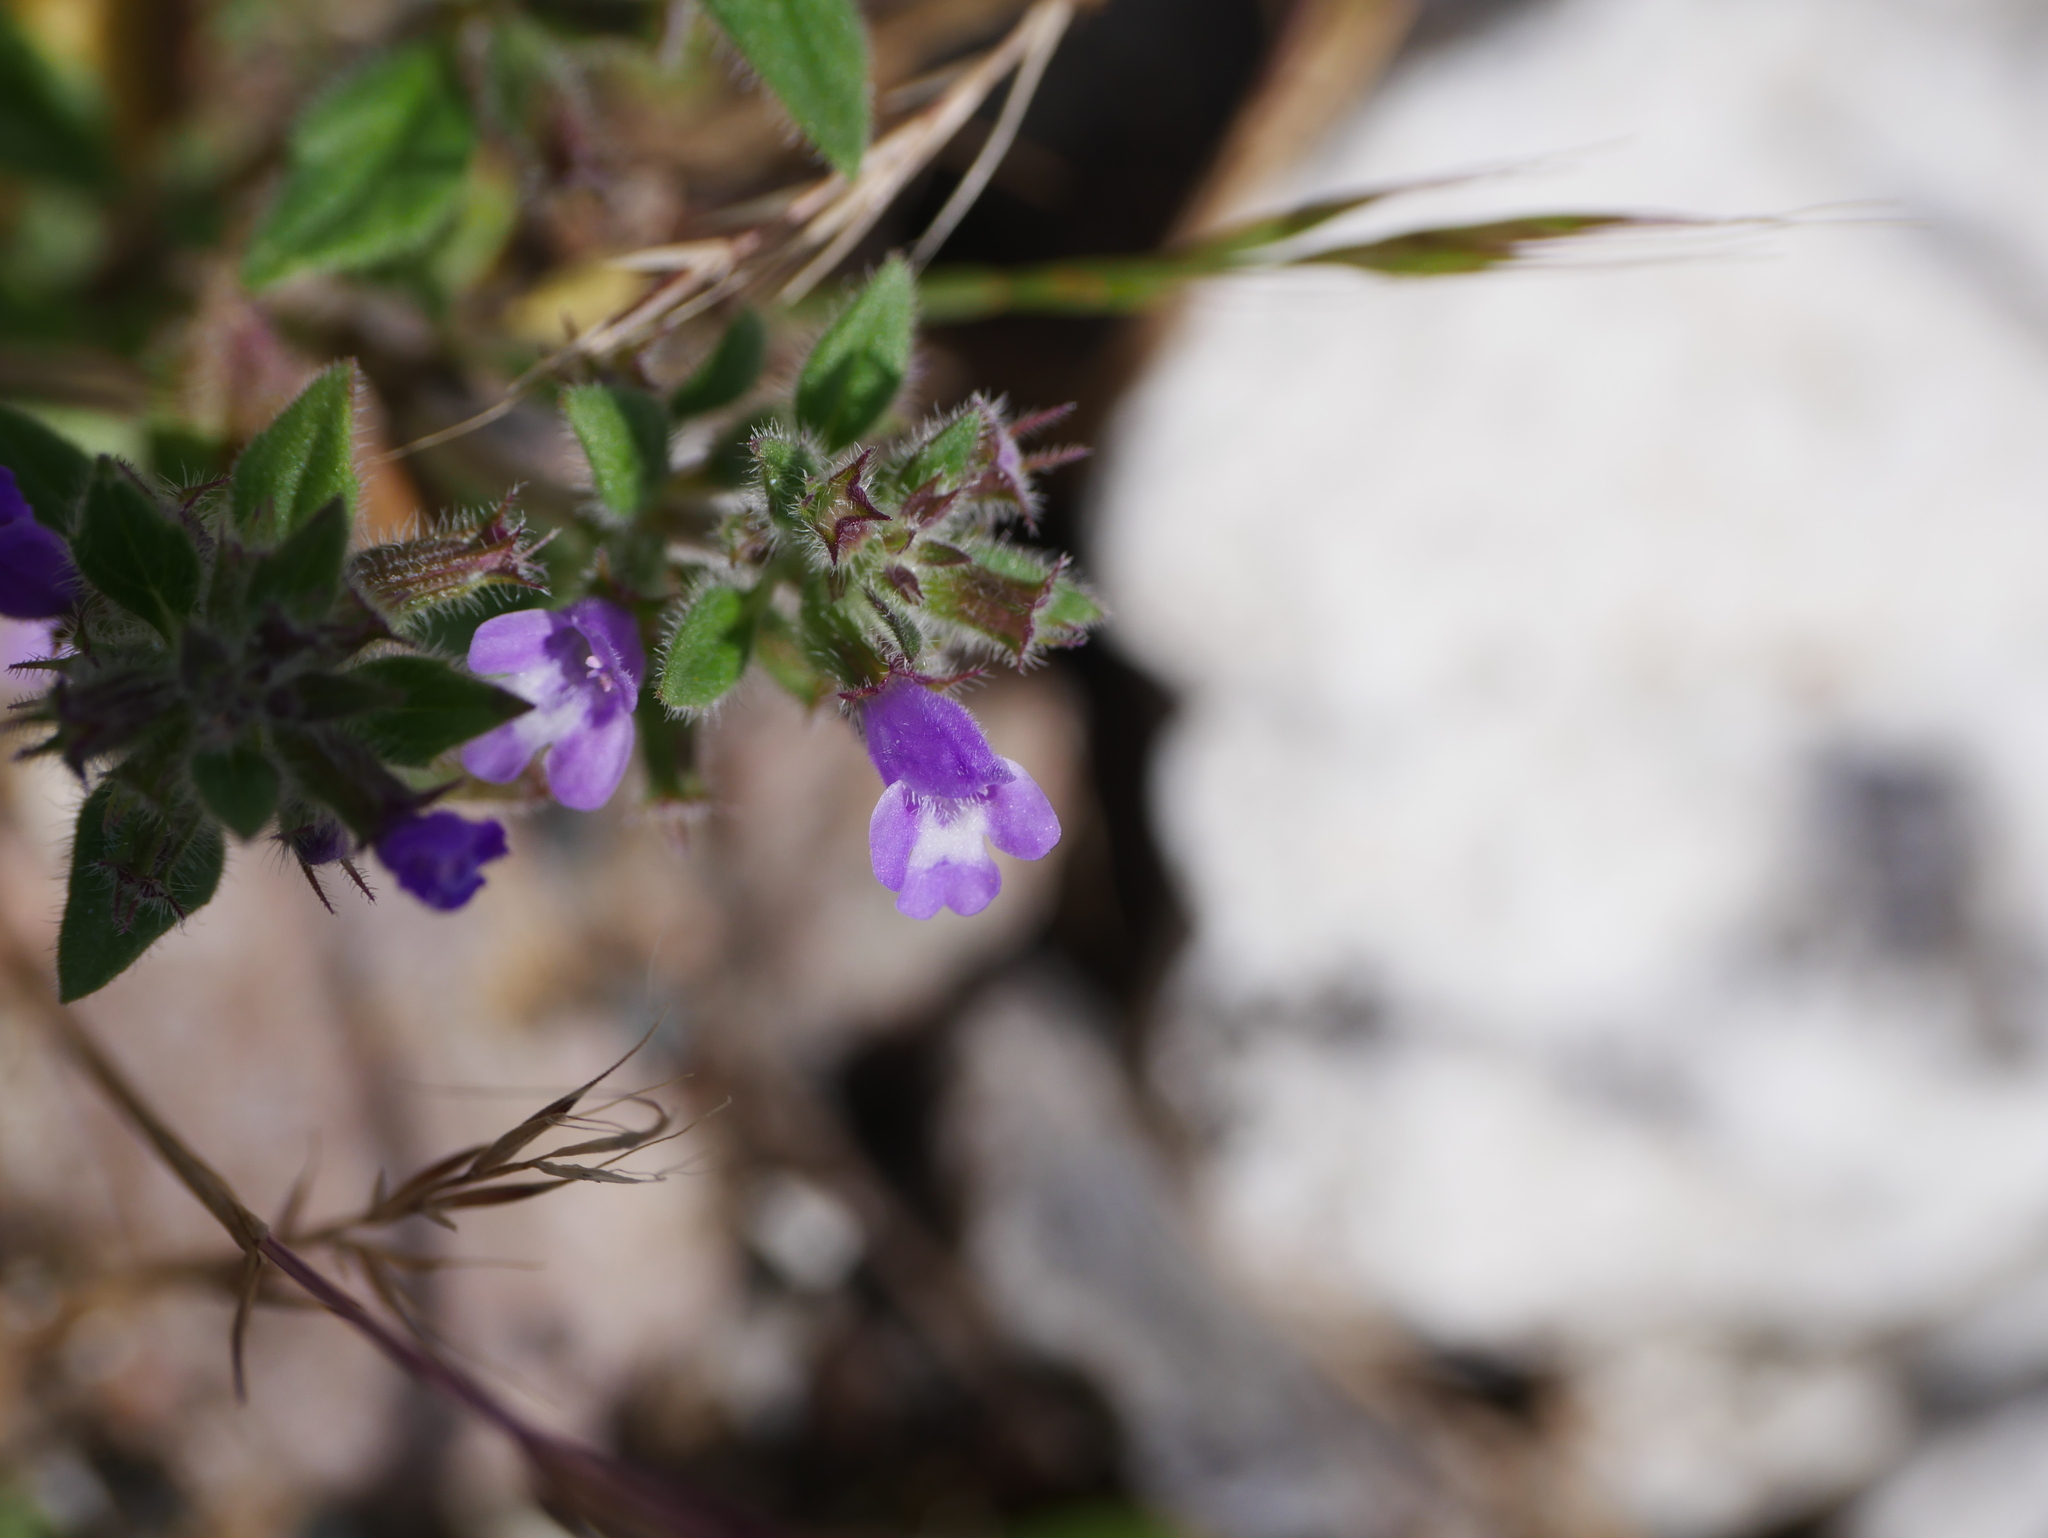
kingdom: Plantae
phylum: Tracheophyta
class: Magnoliopsida
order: Lamiales
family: Lamiaceae
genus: Clinopodium
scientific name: Clinopodium acinos
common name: Basil thyme
